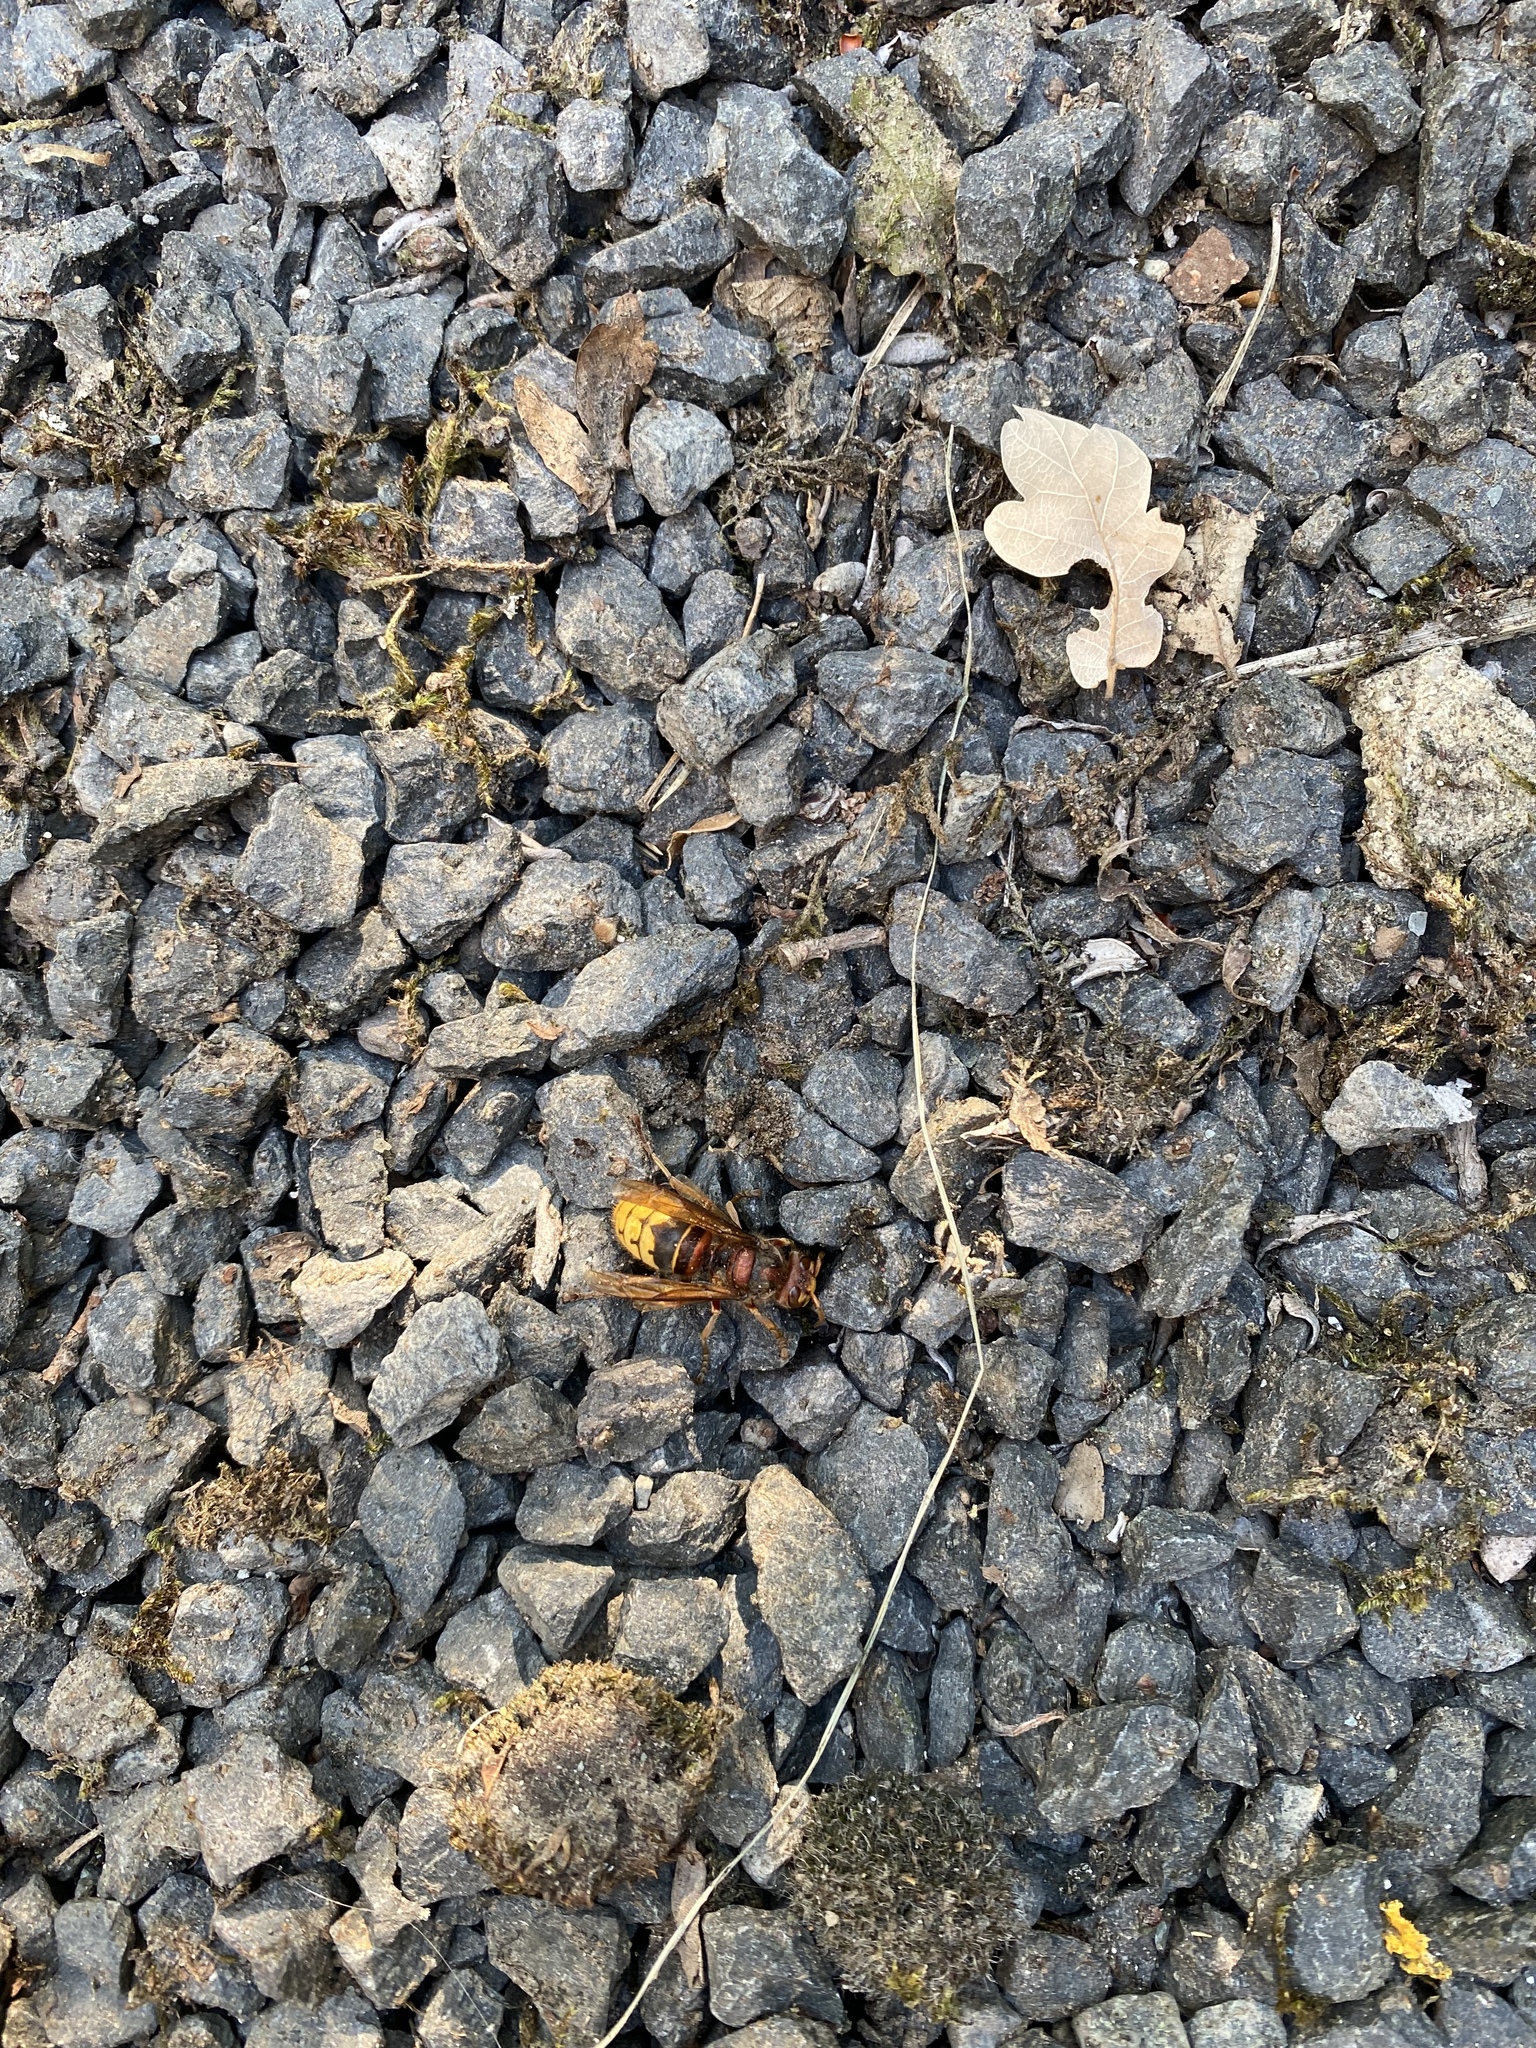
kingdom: Animalia
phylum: Arthropoda
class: Insecta
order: Hymenoptera
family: Vespidae
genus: Vespa
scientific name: Vespa crabro
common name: Hornet
